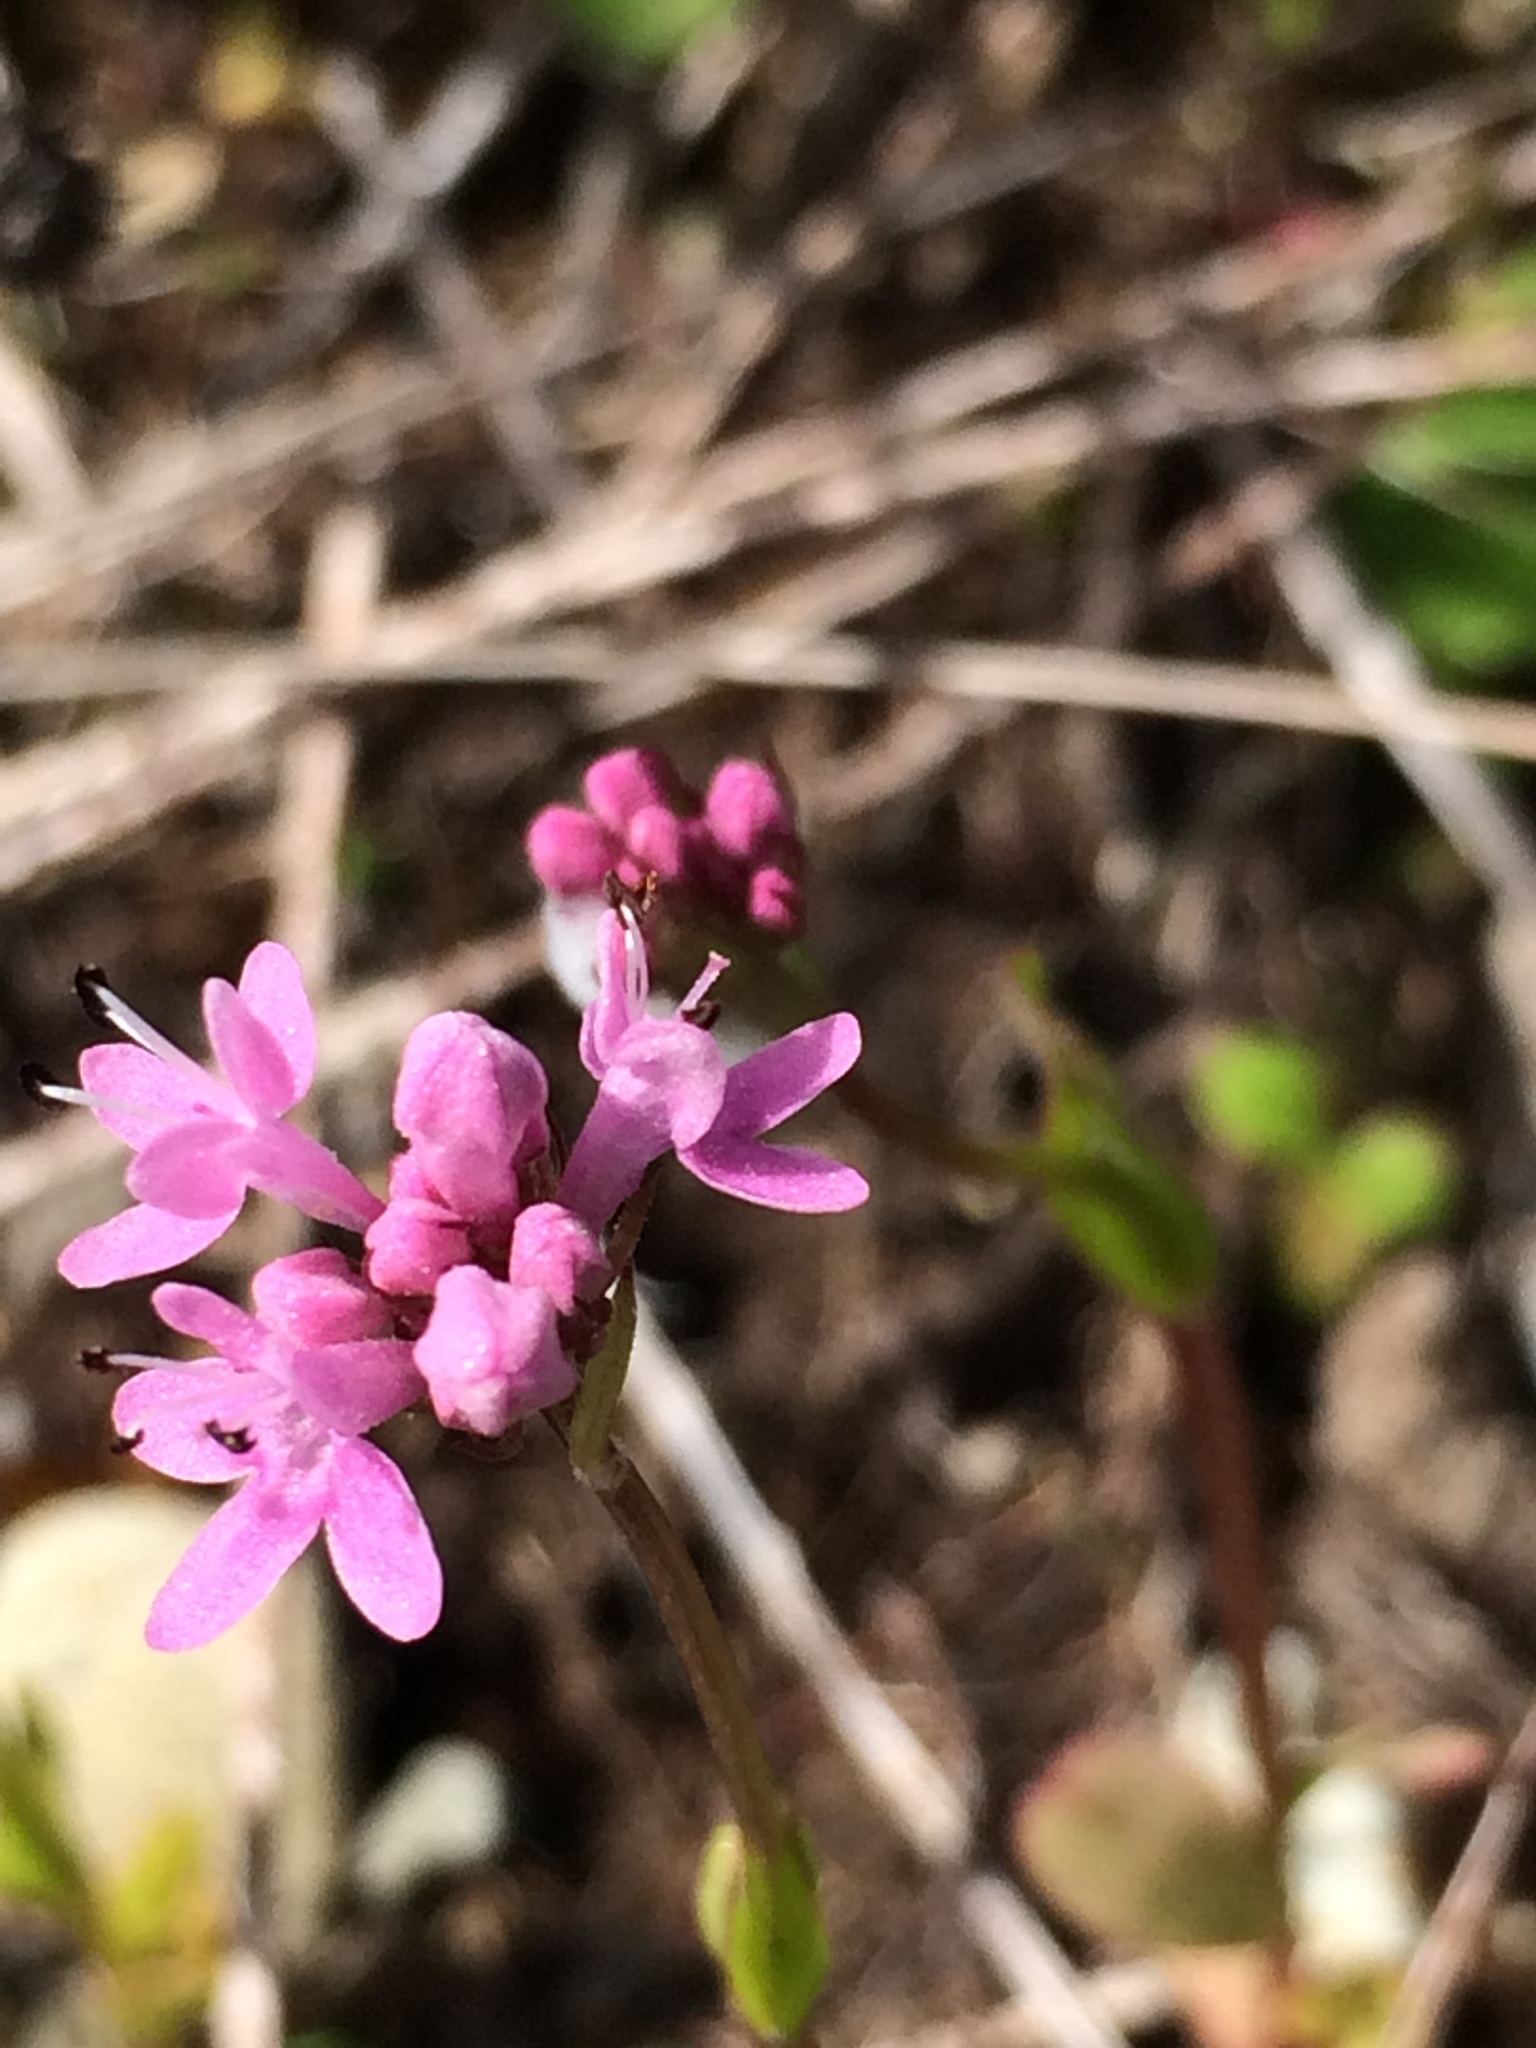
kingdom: Plantae
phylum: Tracheophyta
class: Magnoliopsida
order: Dipsacales
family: Caprifoliaceae
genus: Plectritis
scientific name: Plectritis congesta
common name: Pink plectritis
